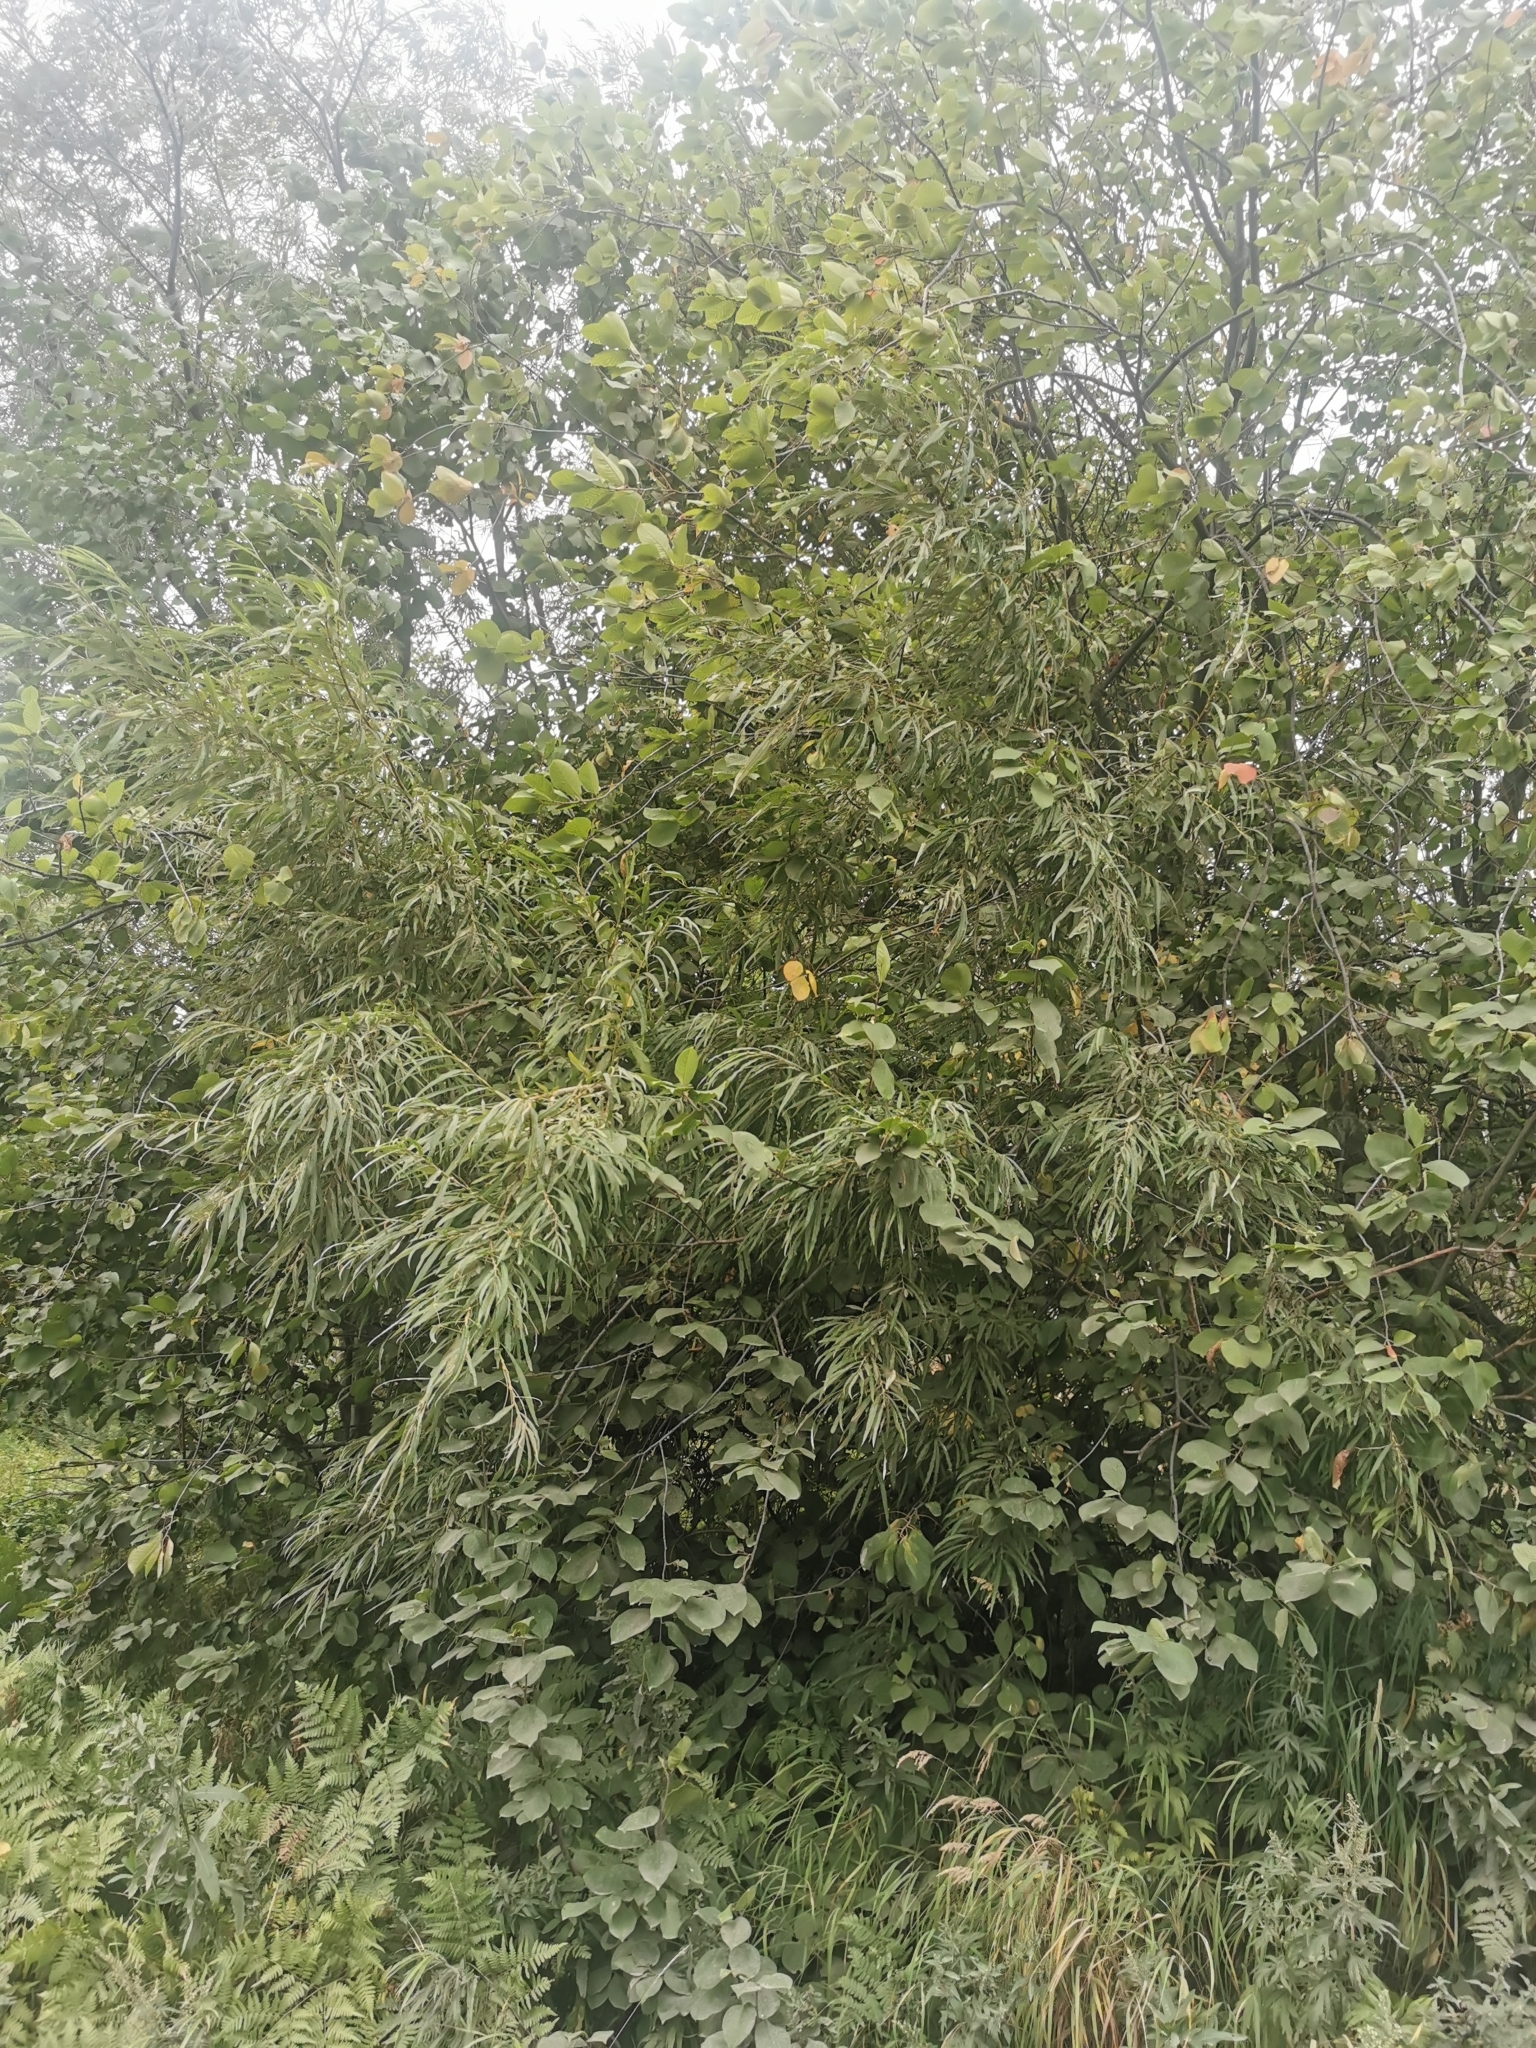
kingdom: Plantae
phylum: Tracheophyta
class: Magnoliopsida
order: Malpighiales
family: Salicaceae
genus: Salix
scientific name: Salix schwerinii
